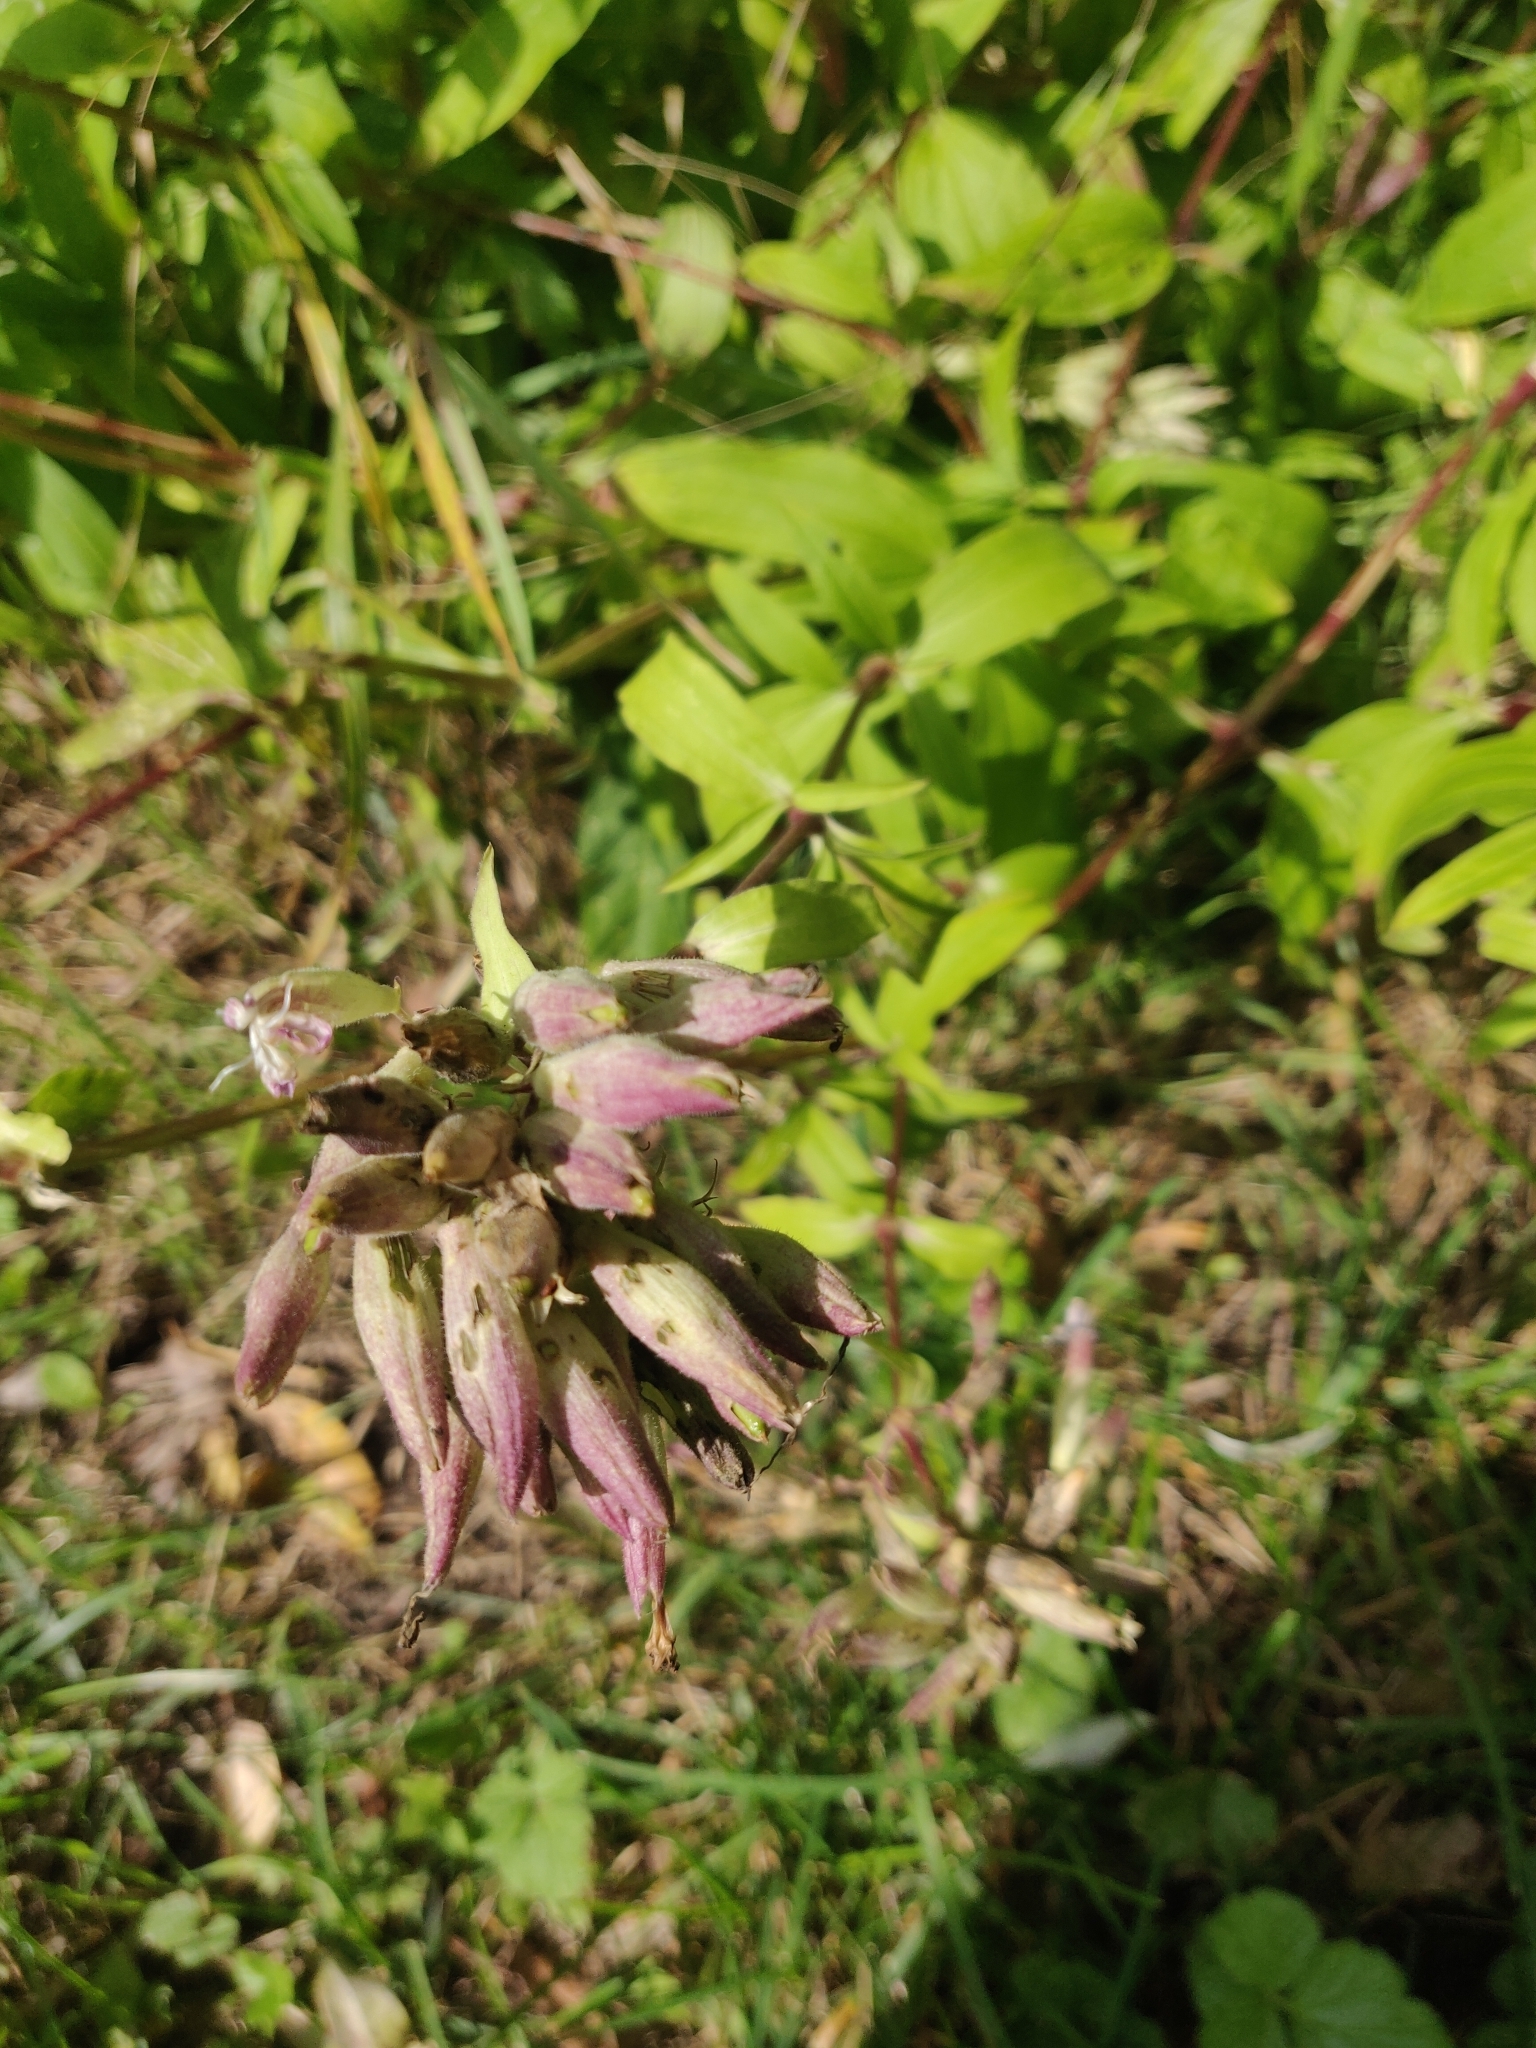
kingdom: Plantae
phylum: Tracheophyta
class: Magnoliopsida
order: Caryophyllales
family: Caryophyllaceae
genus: Saponaria
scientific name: Saponaria officinalis
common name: Soapwort
